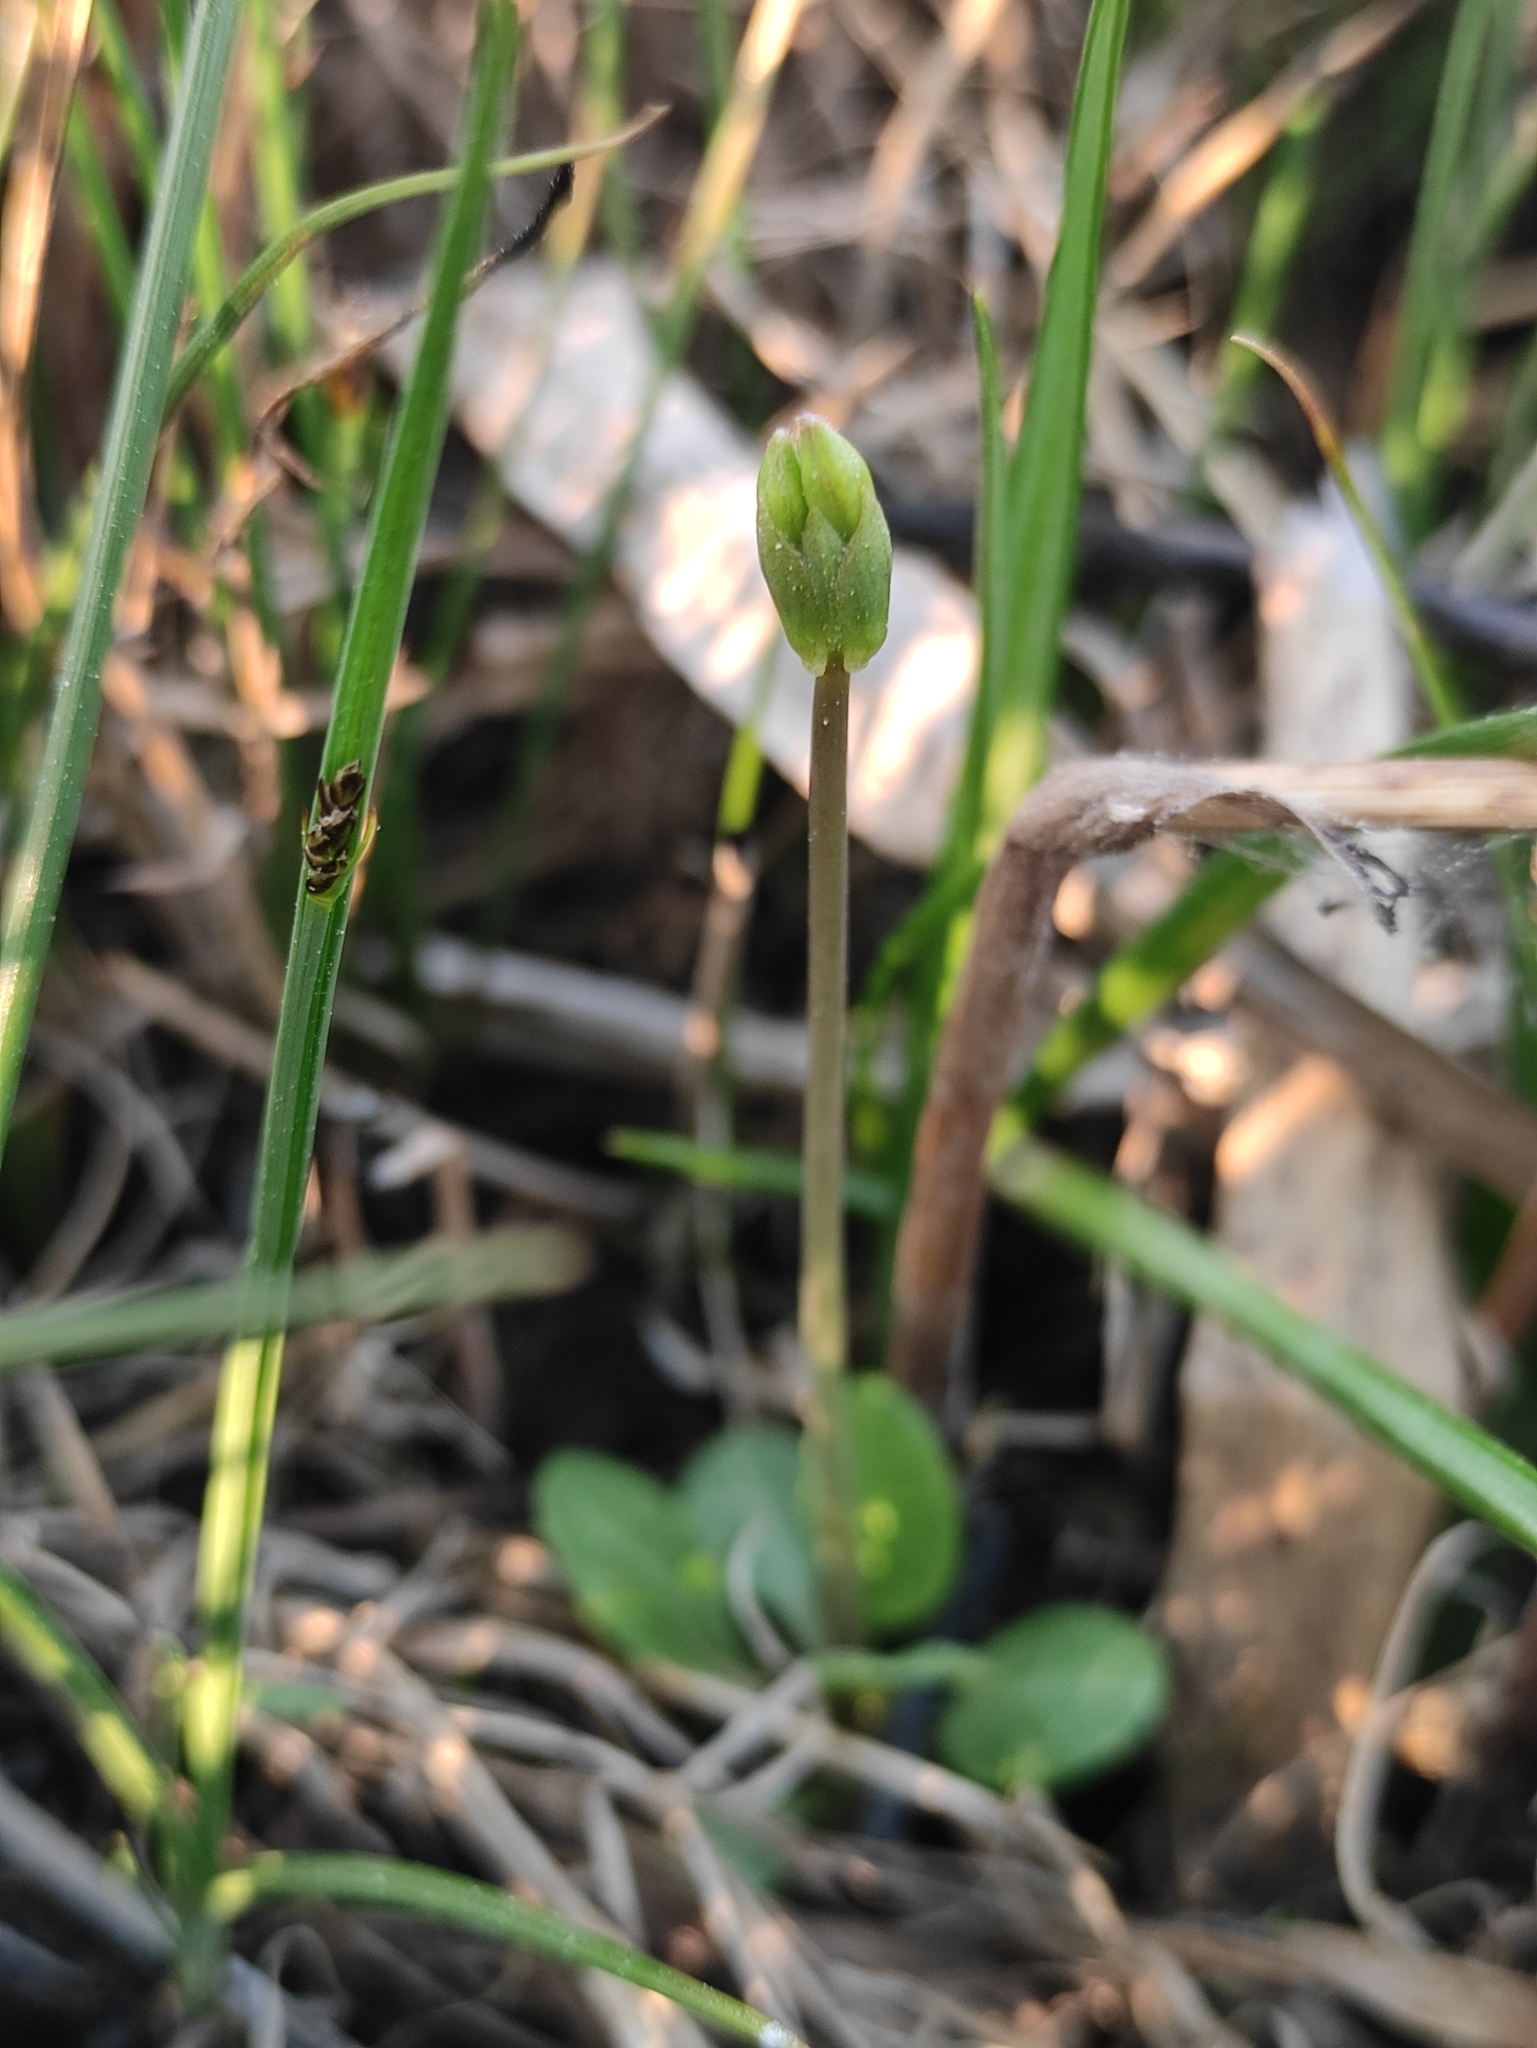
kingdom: Plantae
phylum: Tracheophyta
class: Magnoliopsida
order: Ericales
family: Primulaceae
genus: Primula
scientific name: Primula nutans
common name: Siberian primrose
